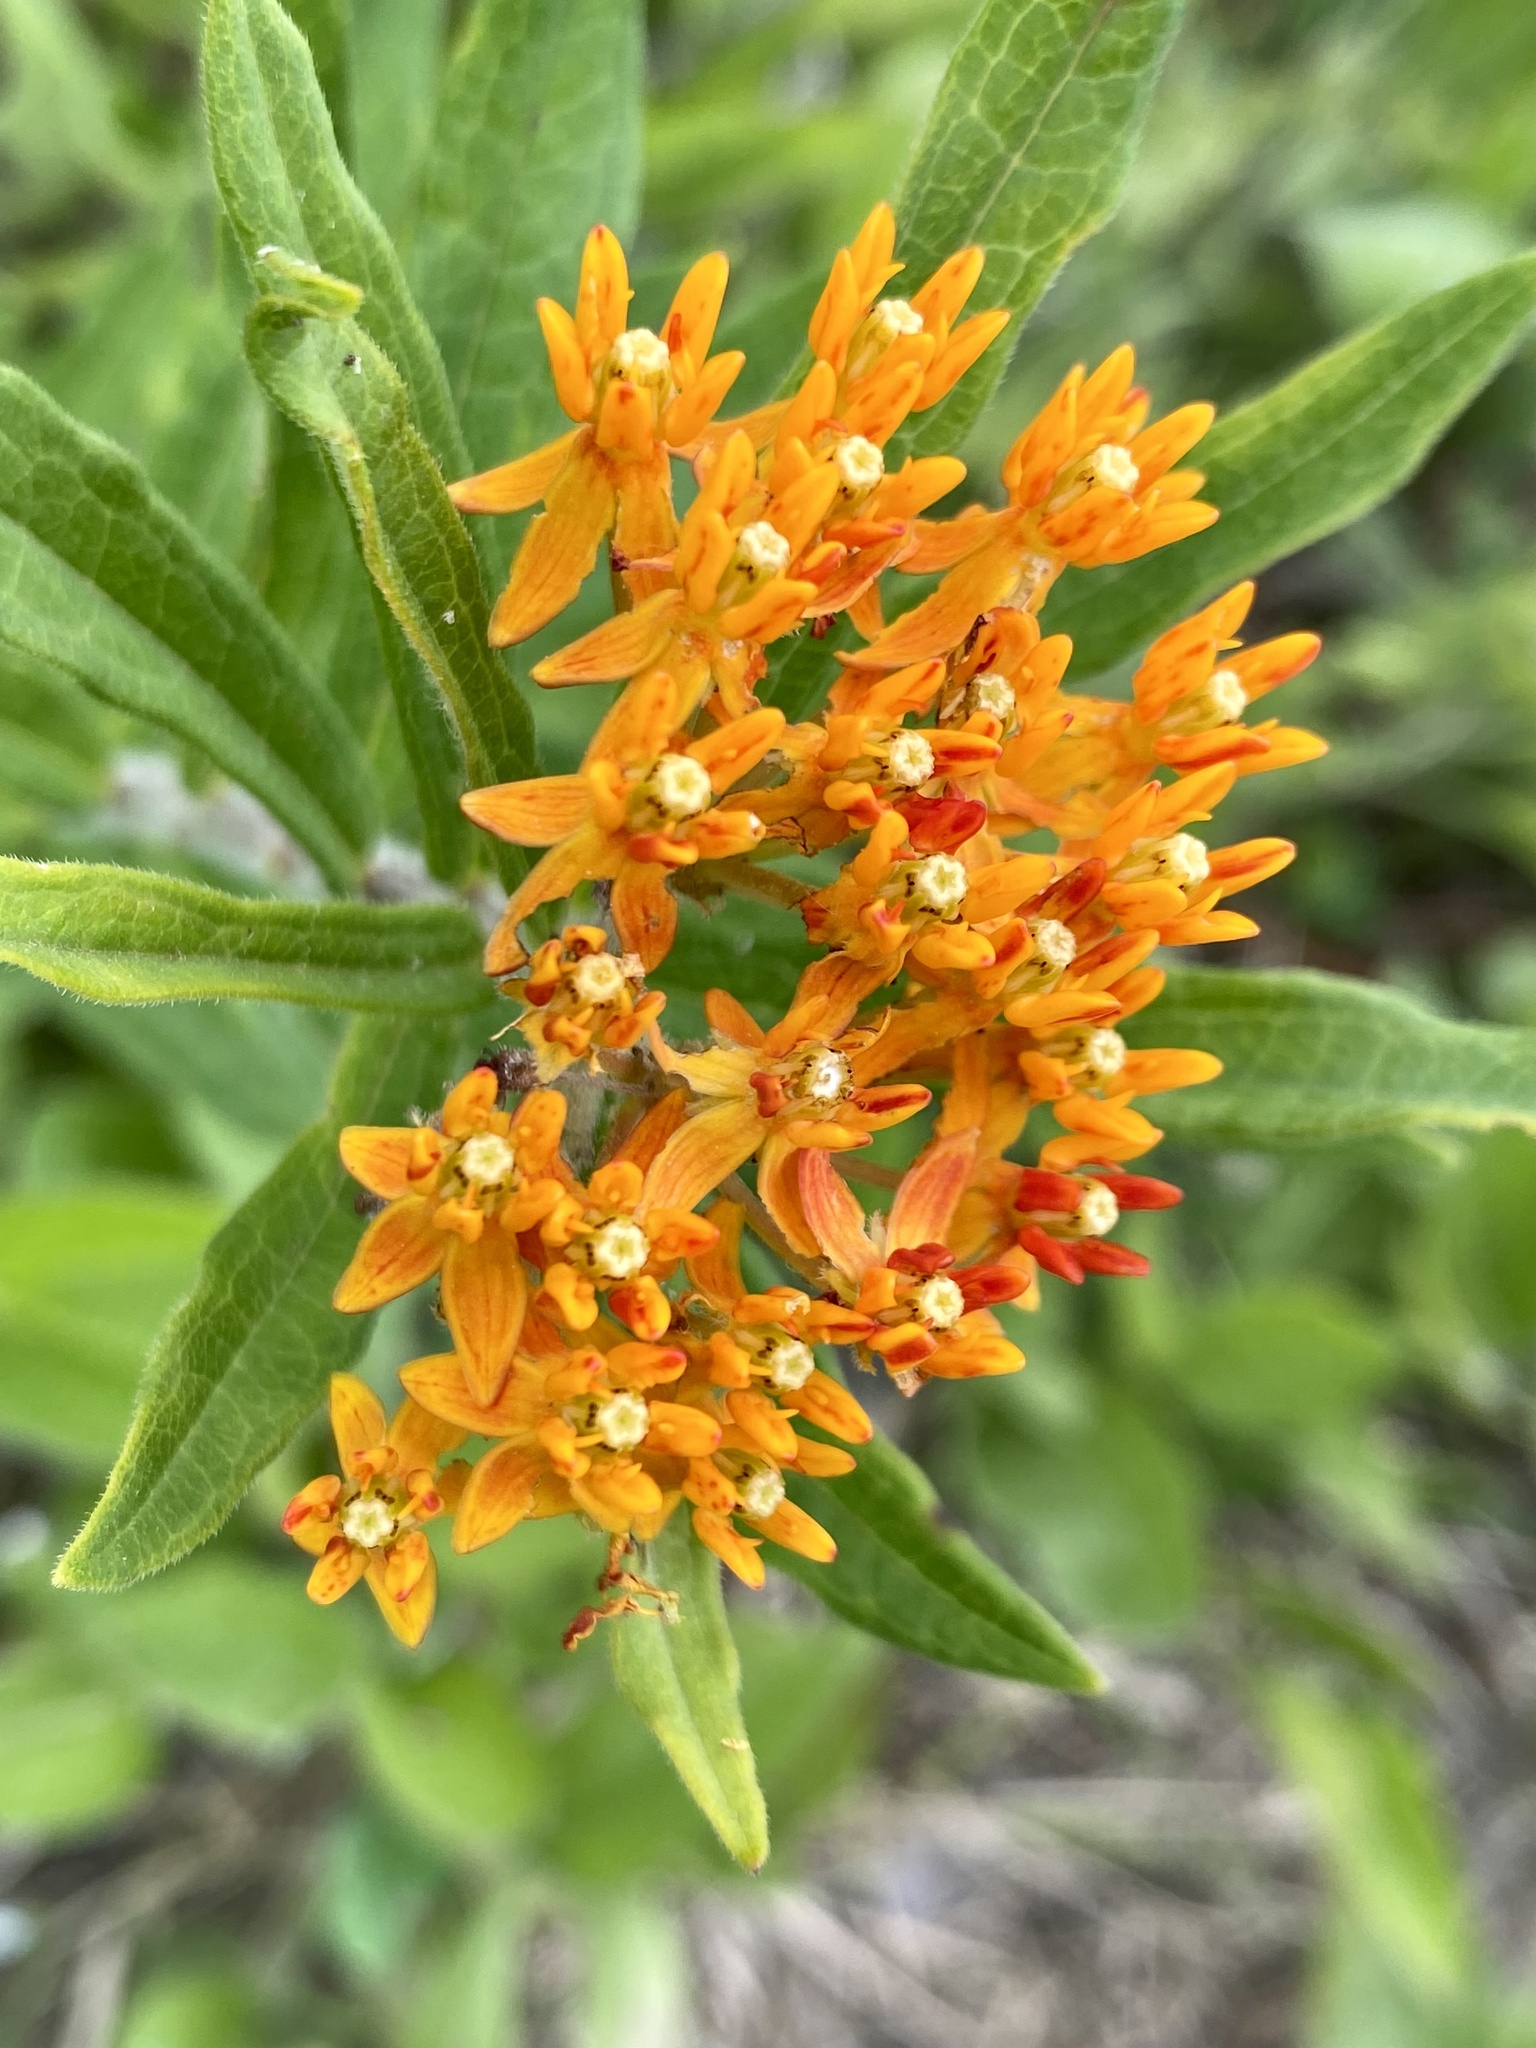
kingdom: Plantae
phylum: Tracheophyta
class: Magnoliopsida
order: Gentianales
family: Apocynaceae
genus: Asclepias
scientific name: Asclepias tuberosa
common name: Butterfly milkweed
